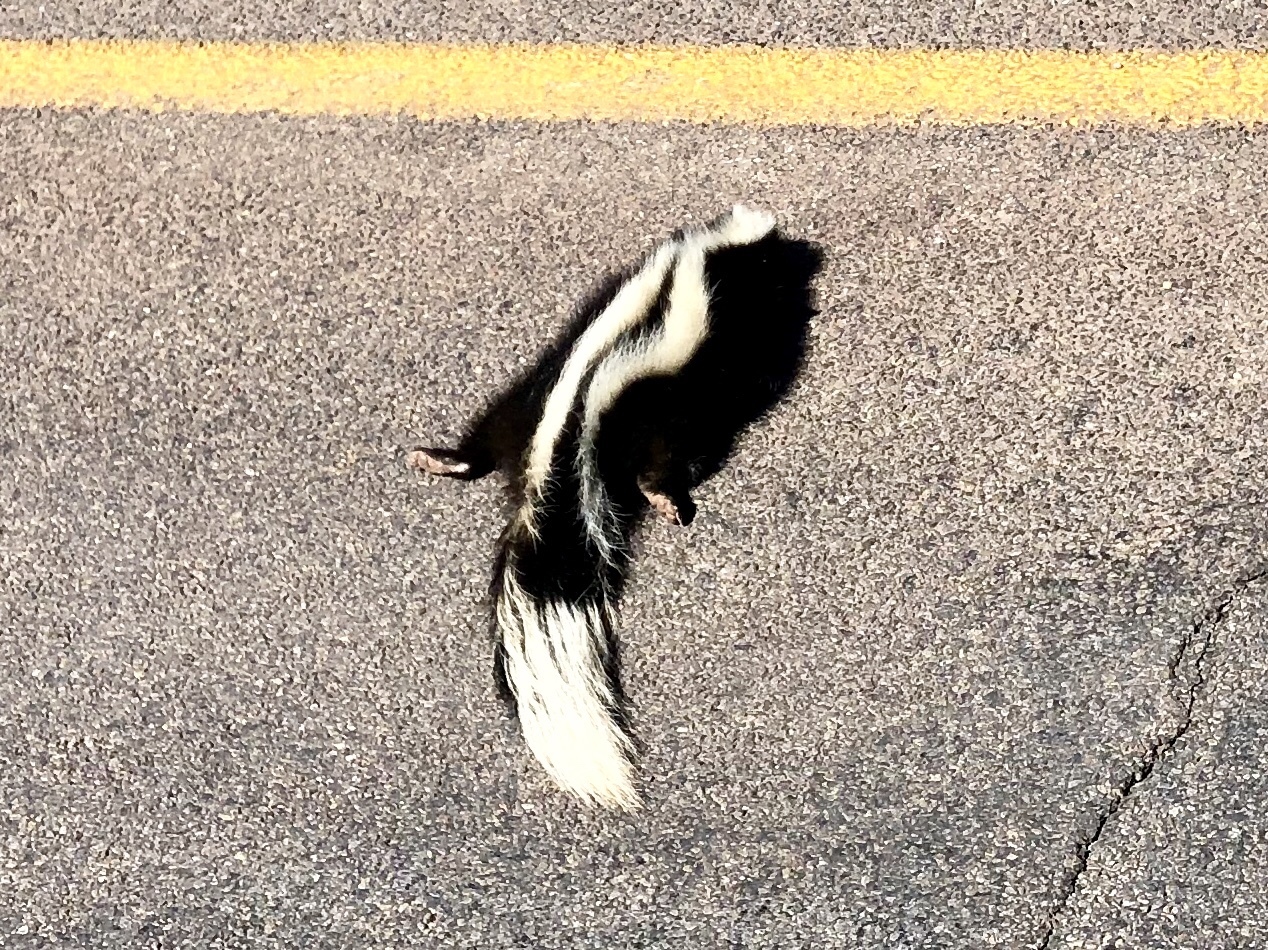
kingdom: Animalia
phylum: Chordata
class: Mammalia
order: Carnivora
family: Mephitidae
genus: Mephitis
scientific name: Mephitis mephitis
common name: Striped skunk
